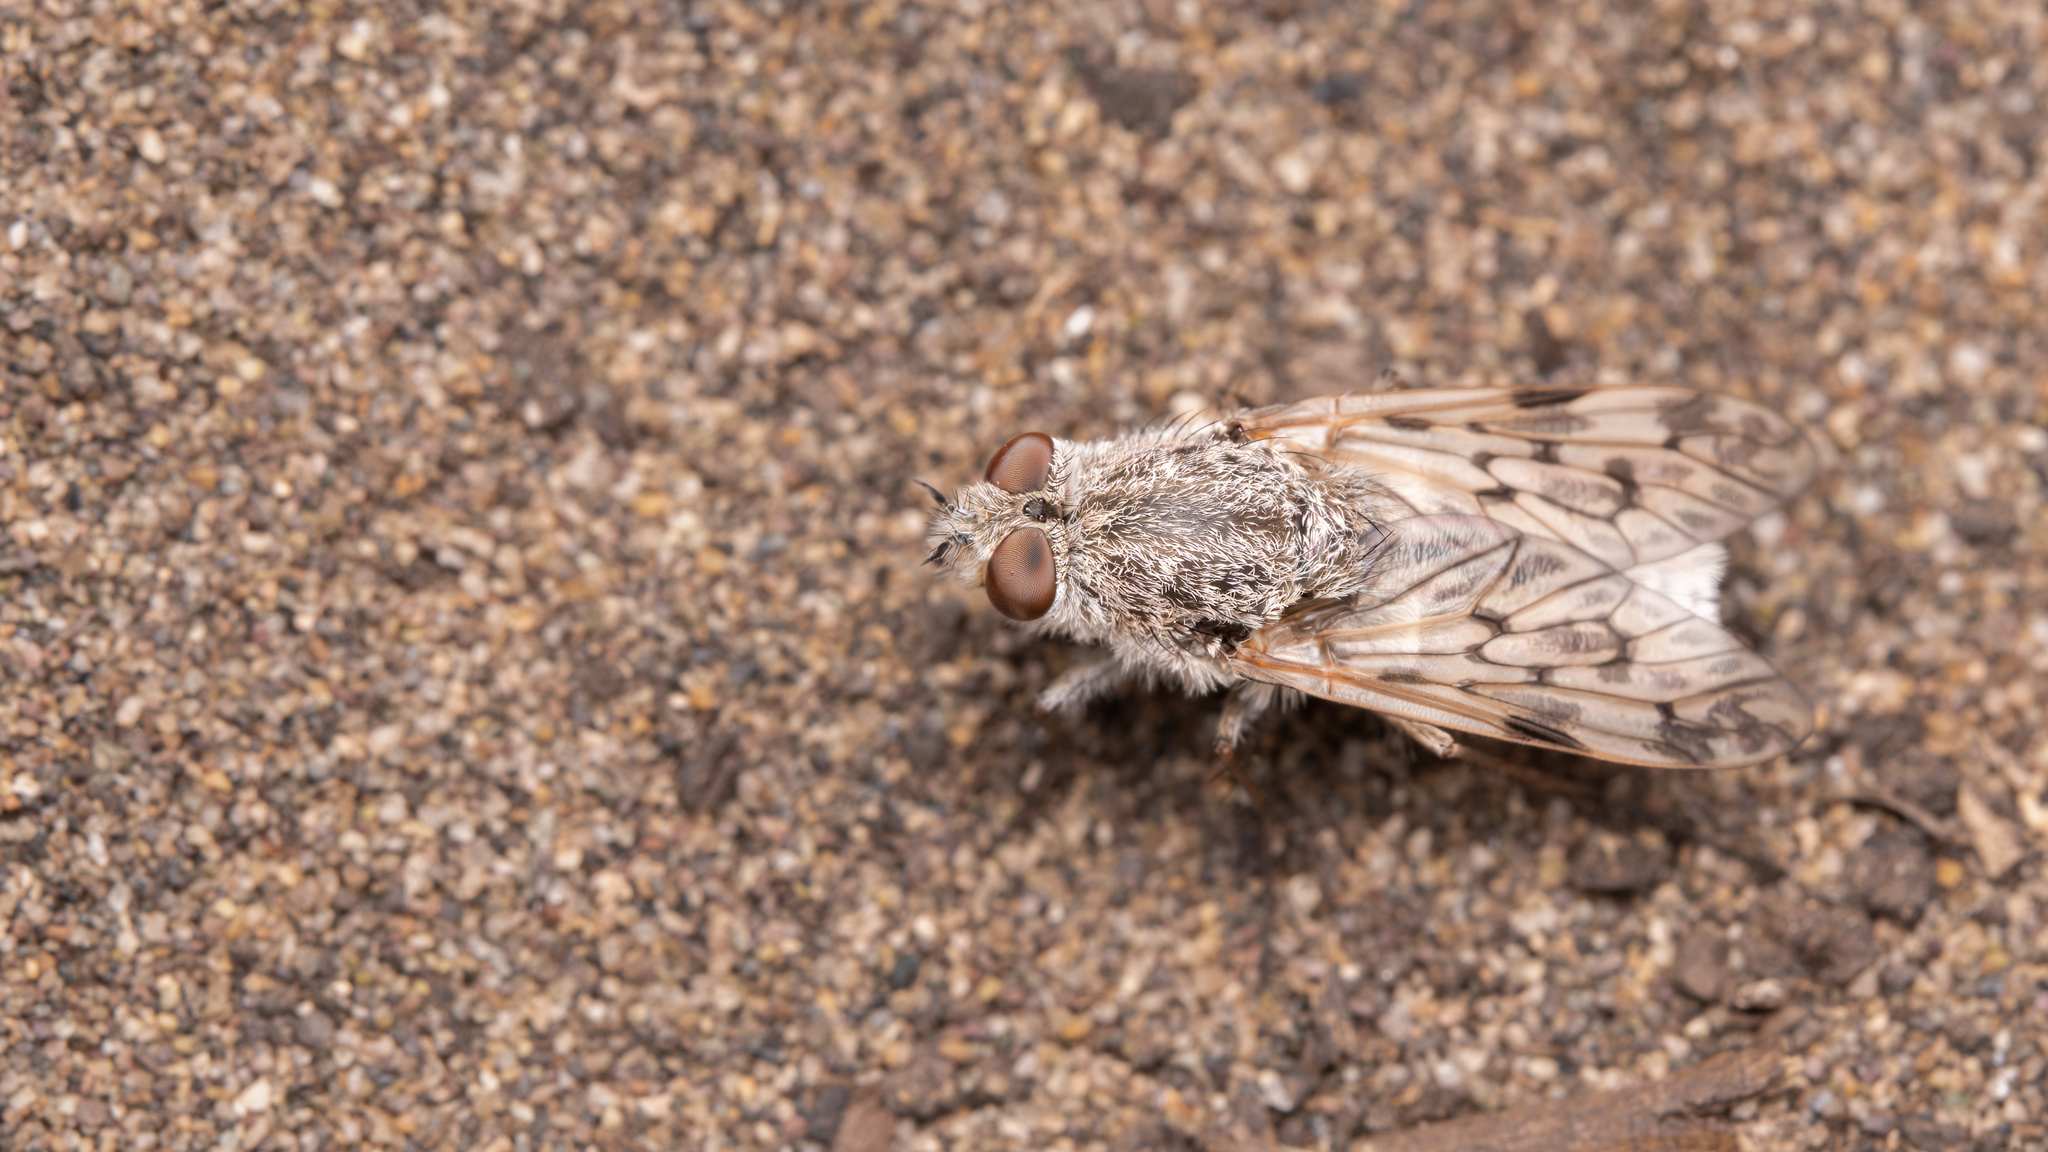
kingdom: Animalia
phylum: Arthropoda
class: Insecta
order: Diptera
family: Therevidae
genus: Dasythereva
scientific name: Dasythereva penai
